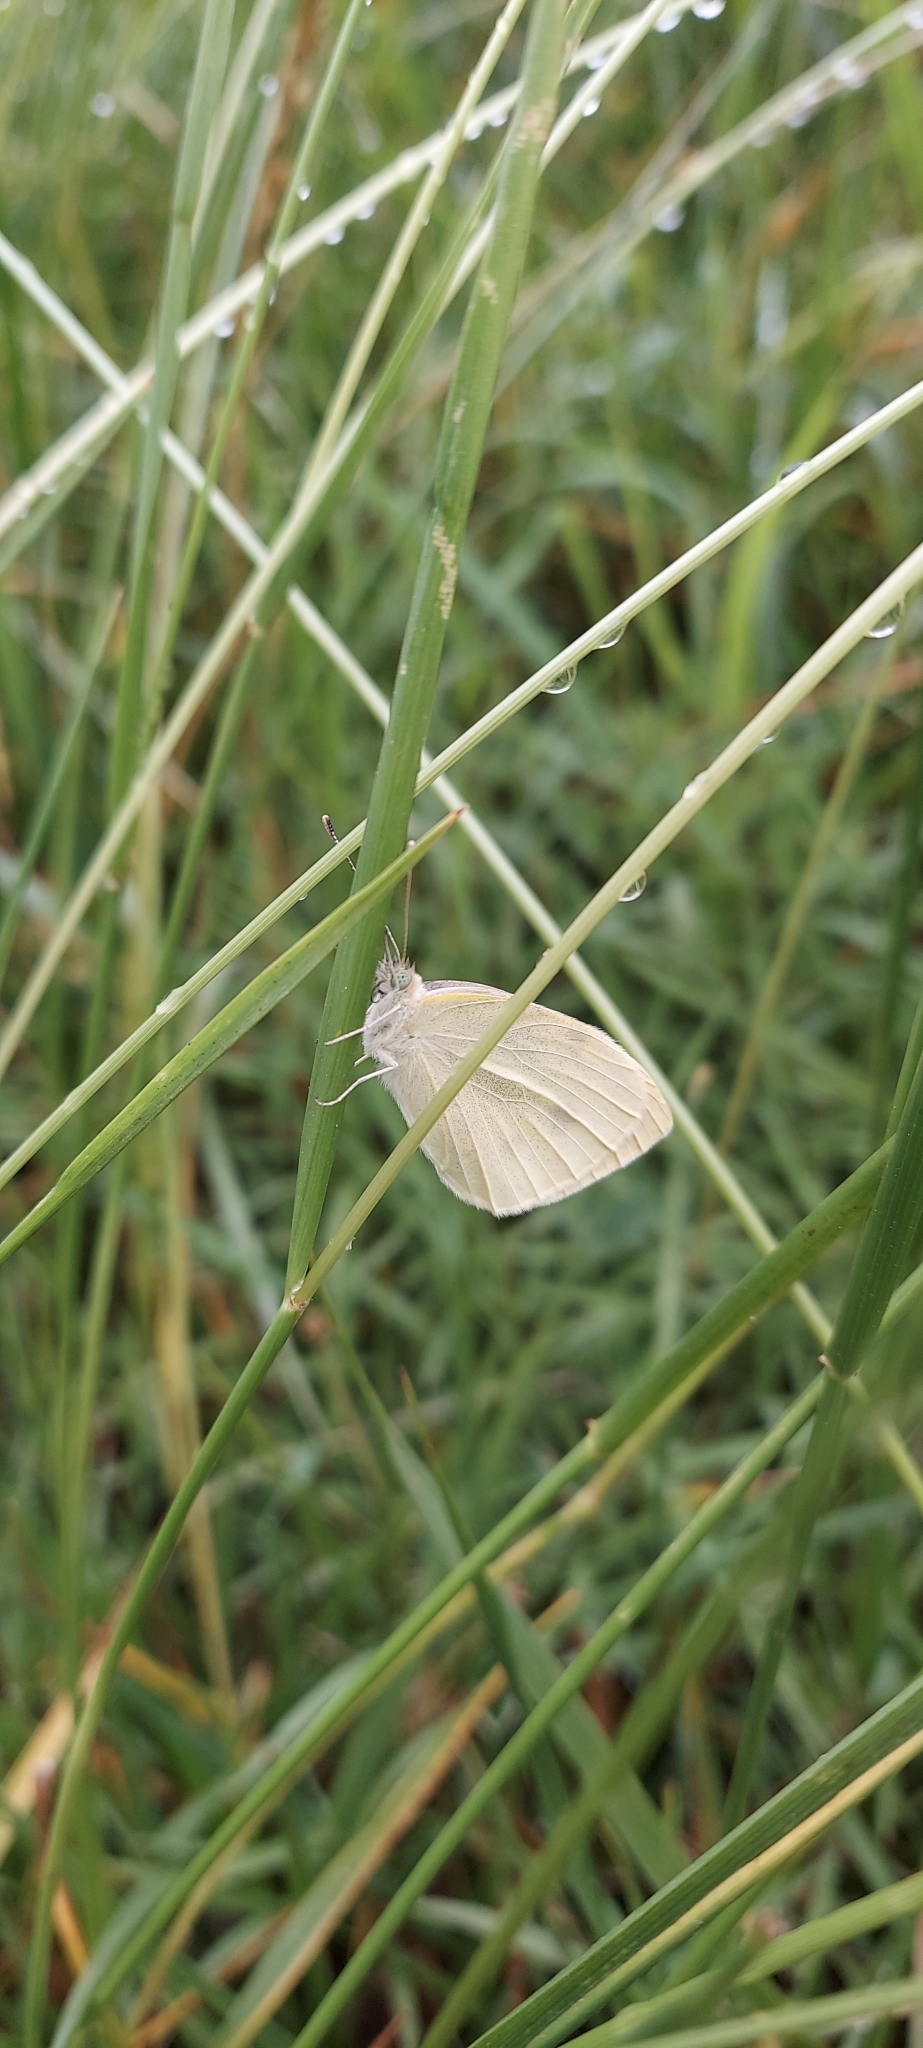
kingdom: Animalia
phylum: Arthropoda
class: Insecta
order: Lepidoptera
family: Pieridae
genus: Pieris
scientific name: Pieris rapae
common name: Small white
